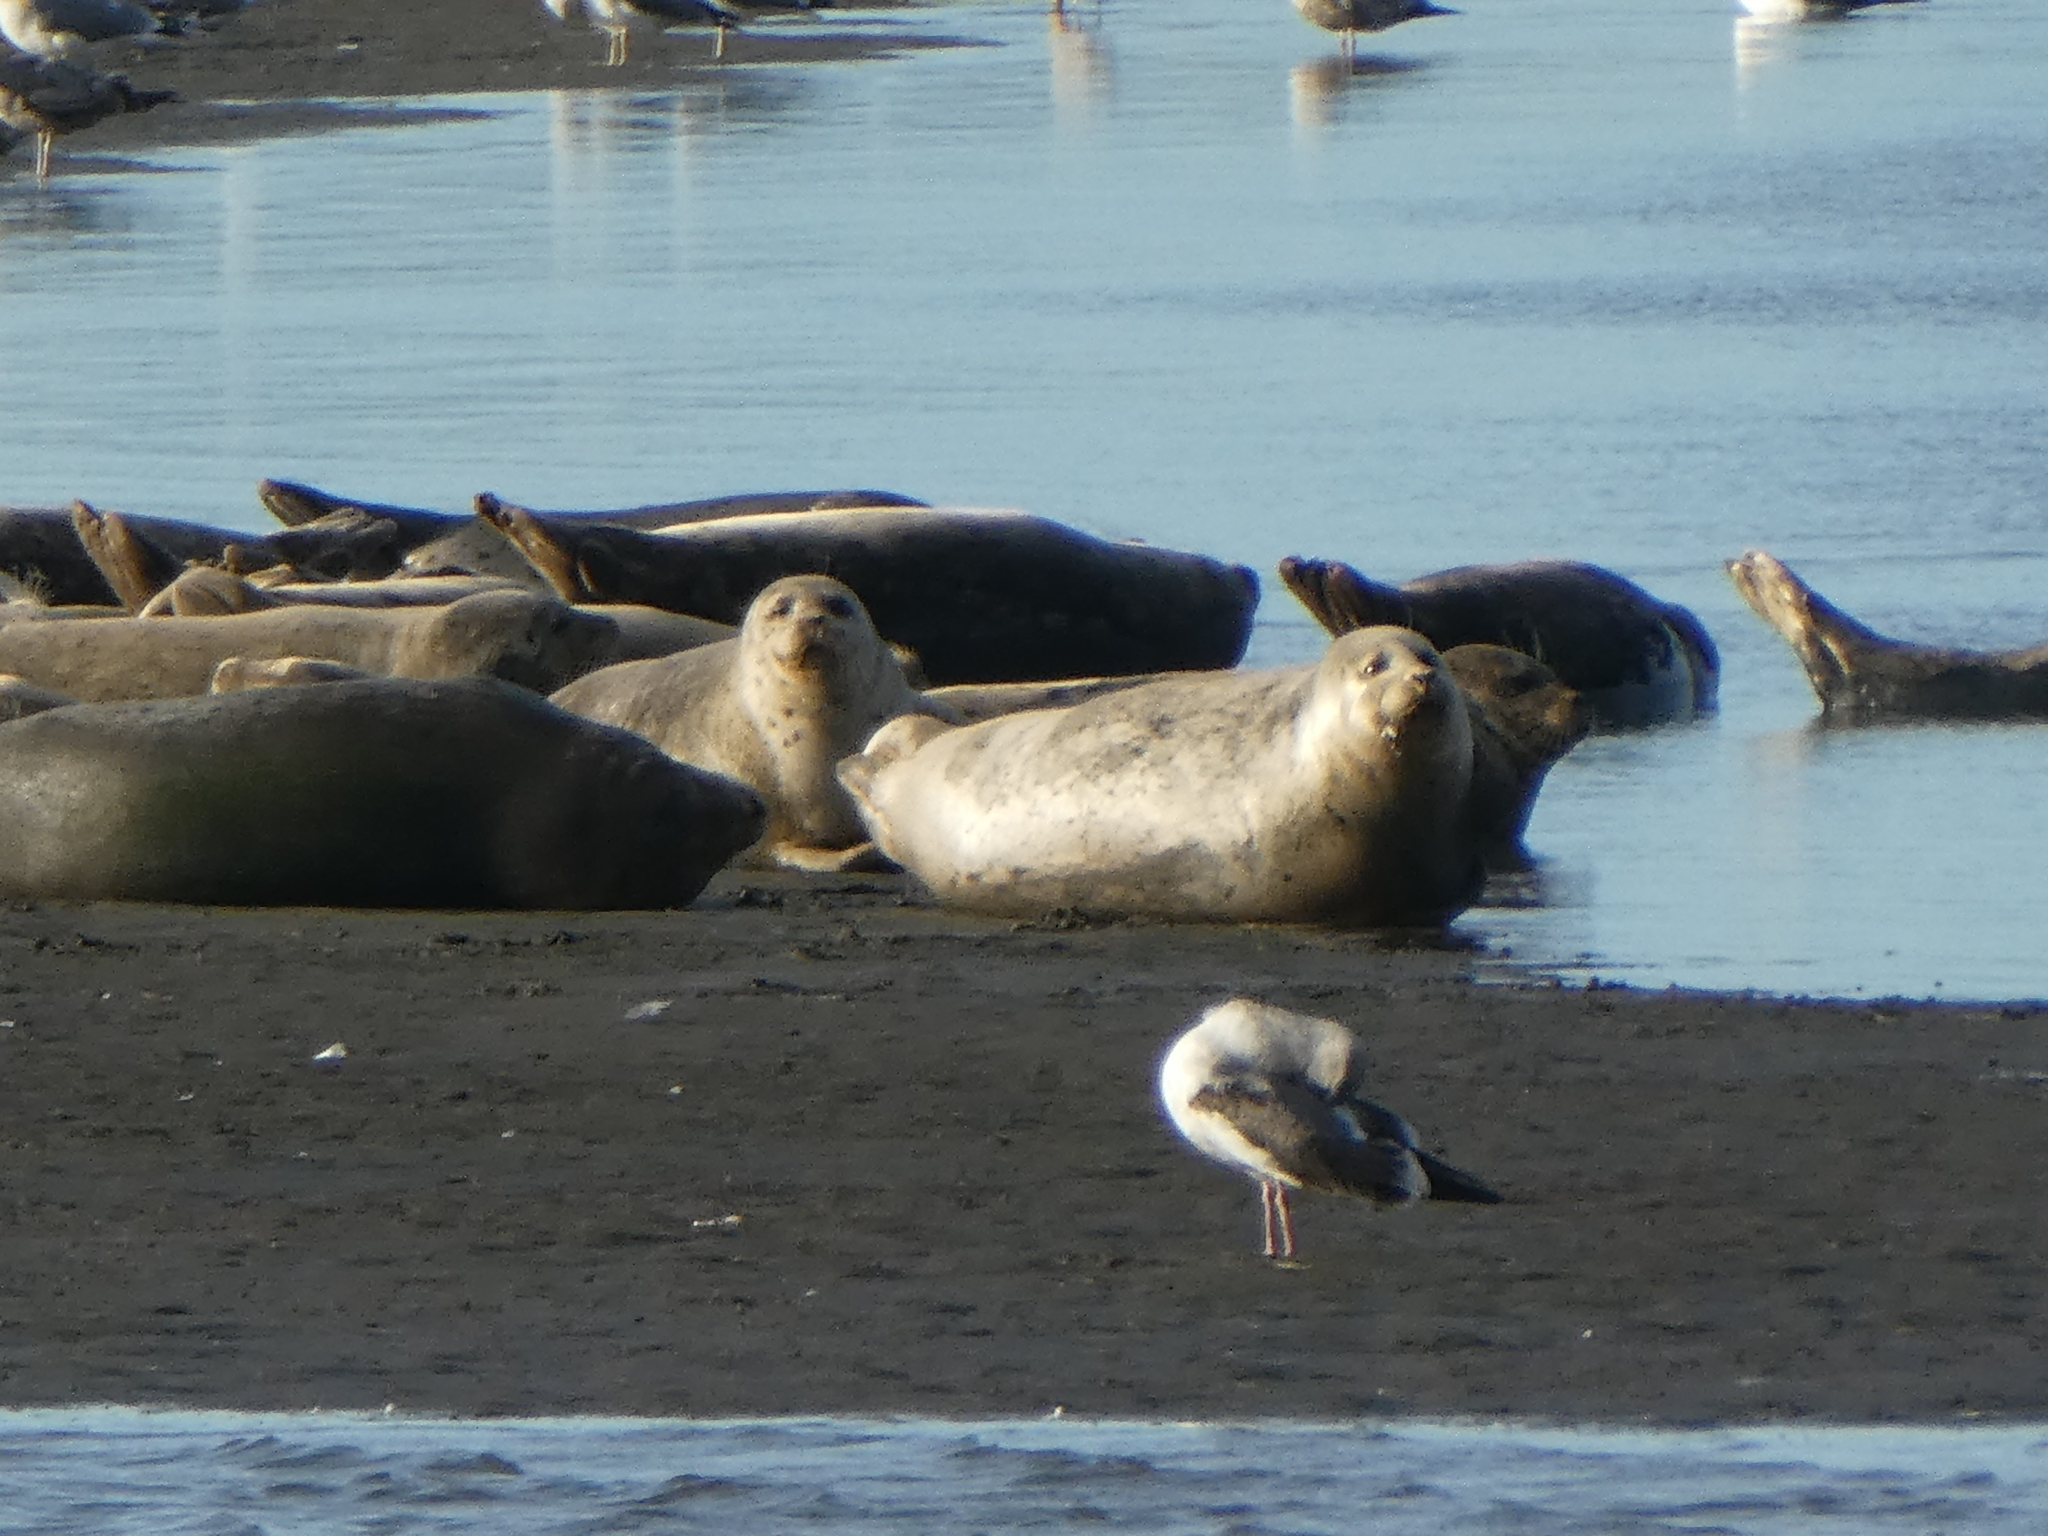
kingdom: Animalia
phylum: Chordata
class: Mammalia
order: Carnivora
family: Phocidae
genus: Phoca
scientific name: Phoca vitulina
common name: Harbor seal
